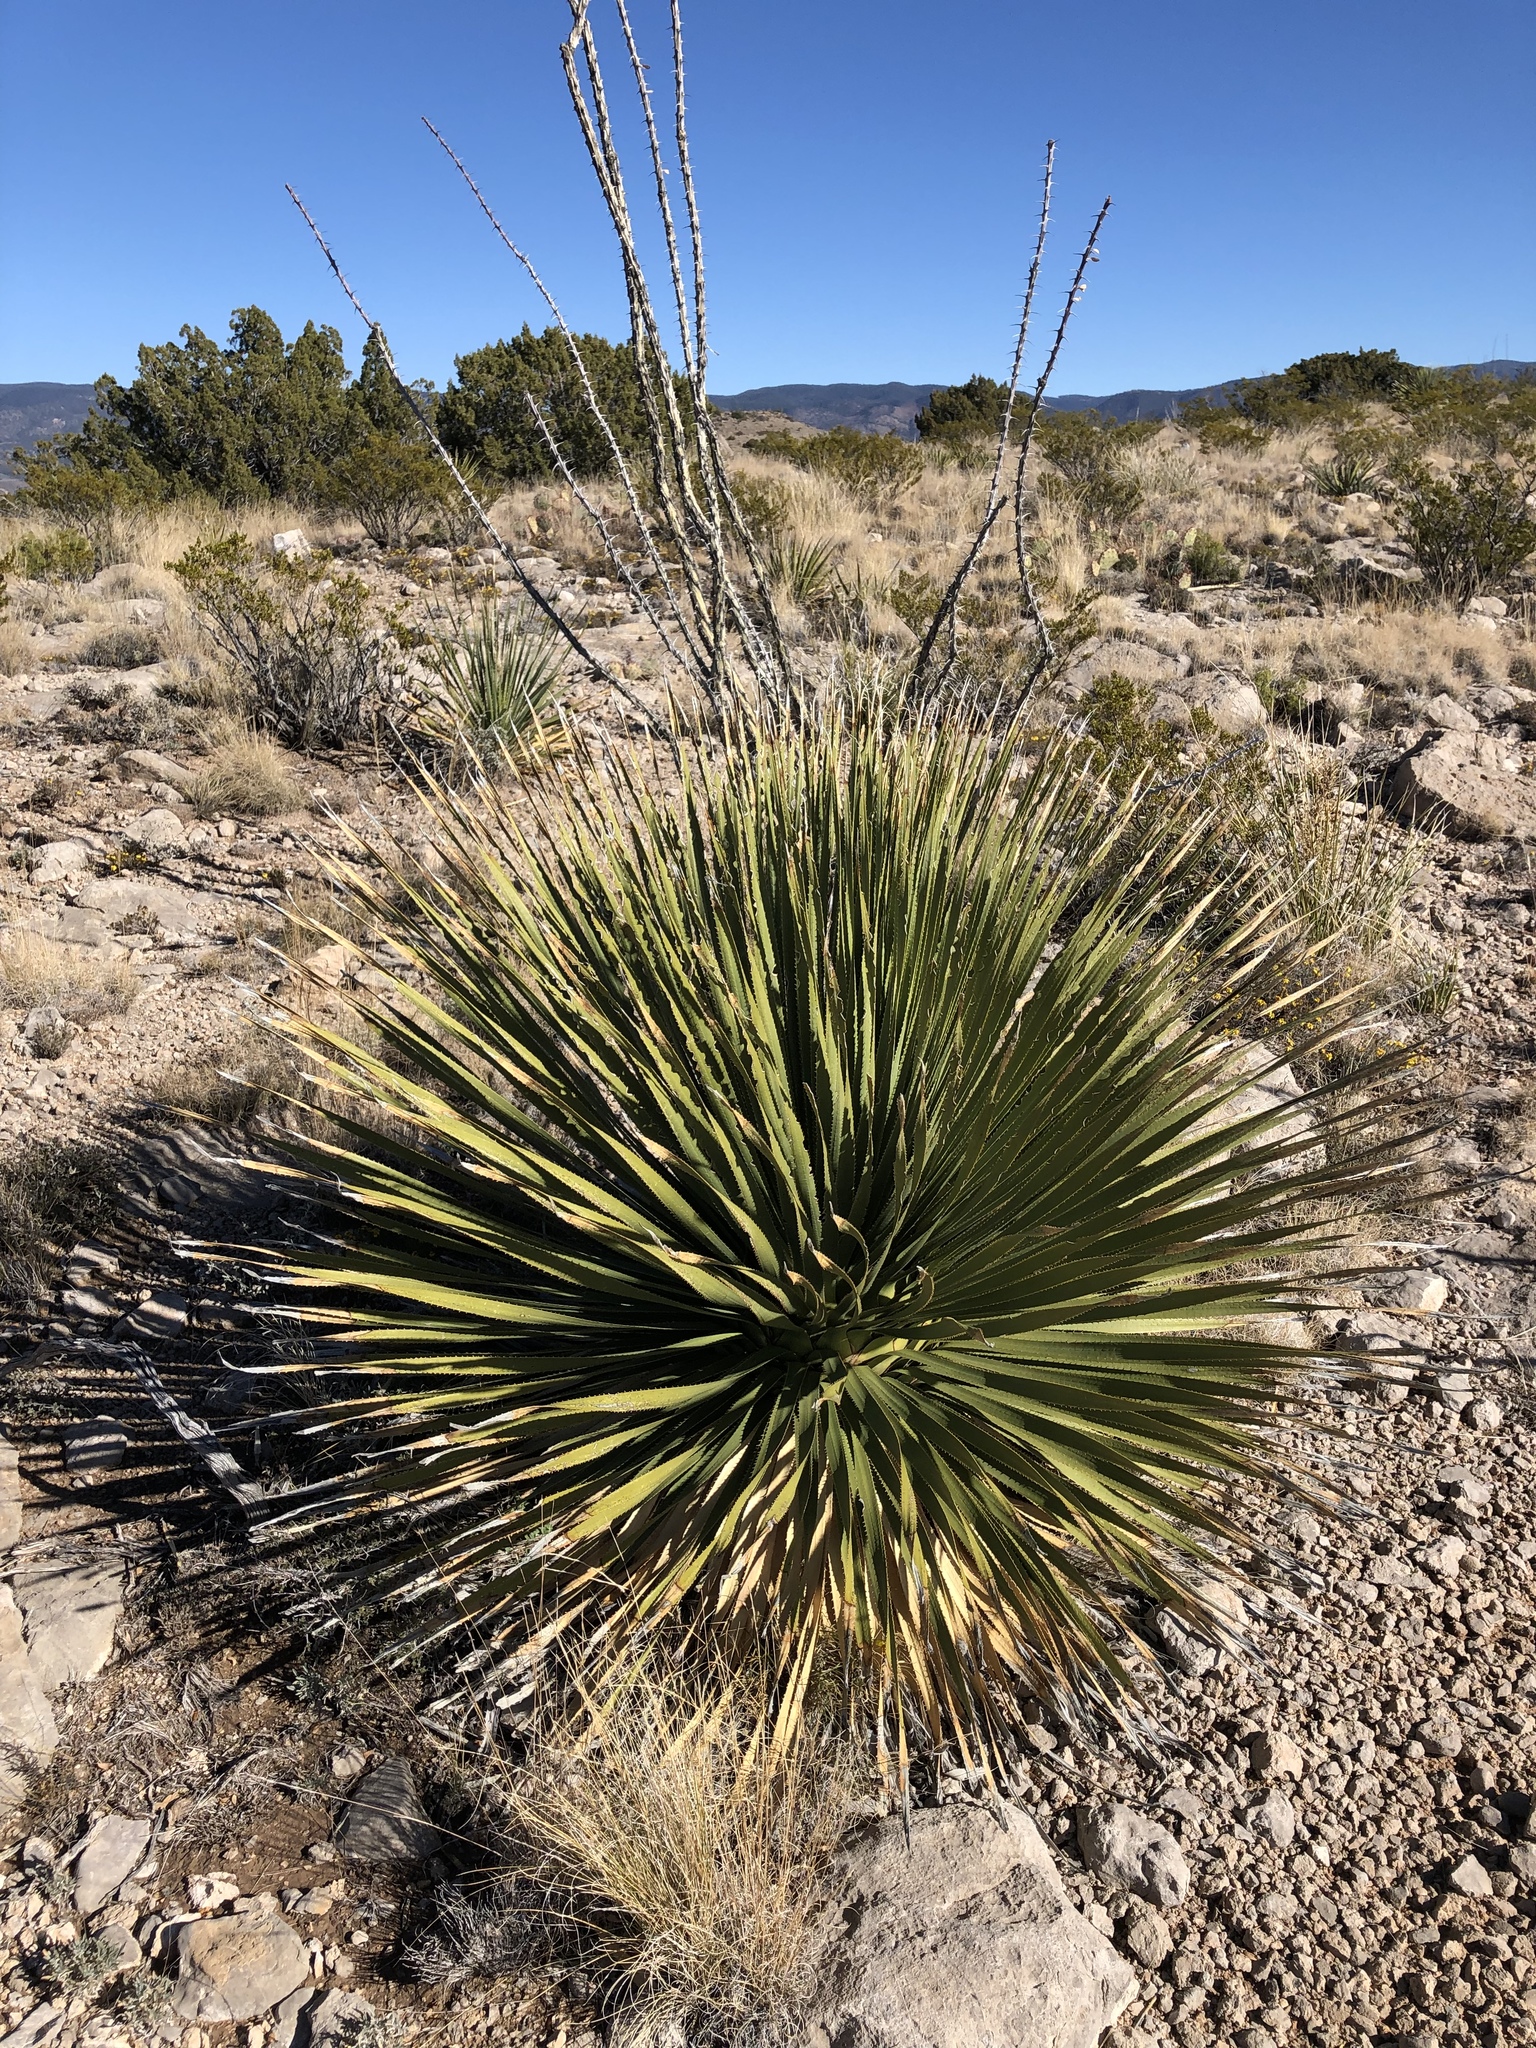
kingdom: Plantae
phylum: Tracheophyta
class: Liliopsida
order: Asparagales
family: Asparagaceae
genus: Dasylirion
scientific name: Dasylirion wheeleri
